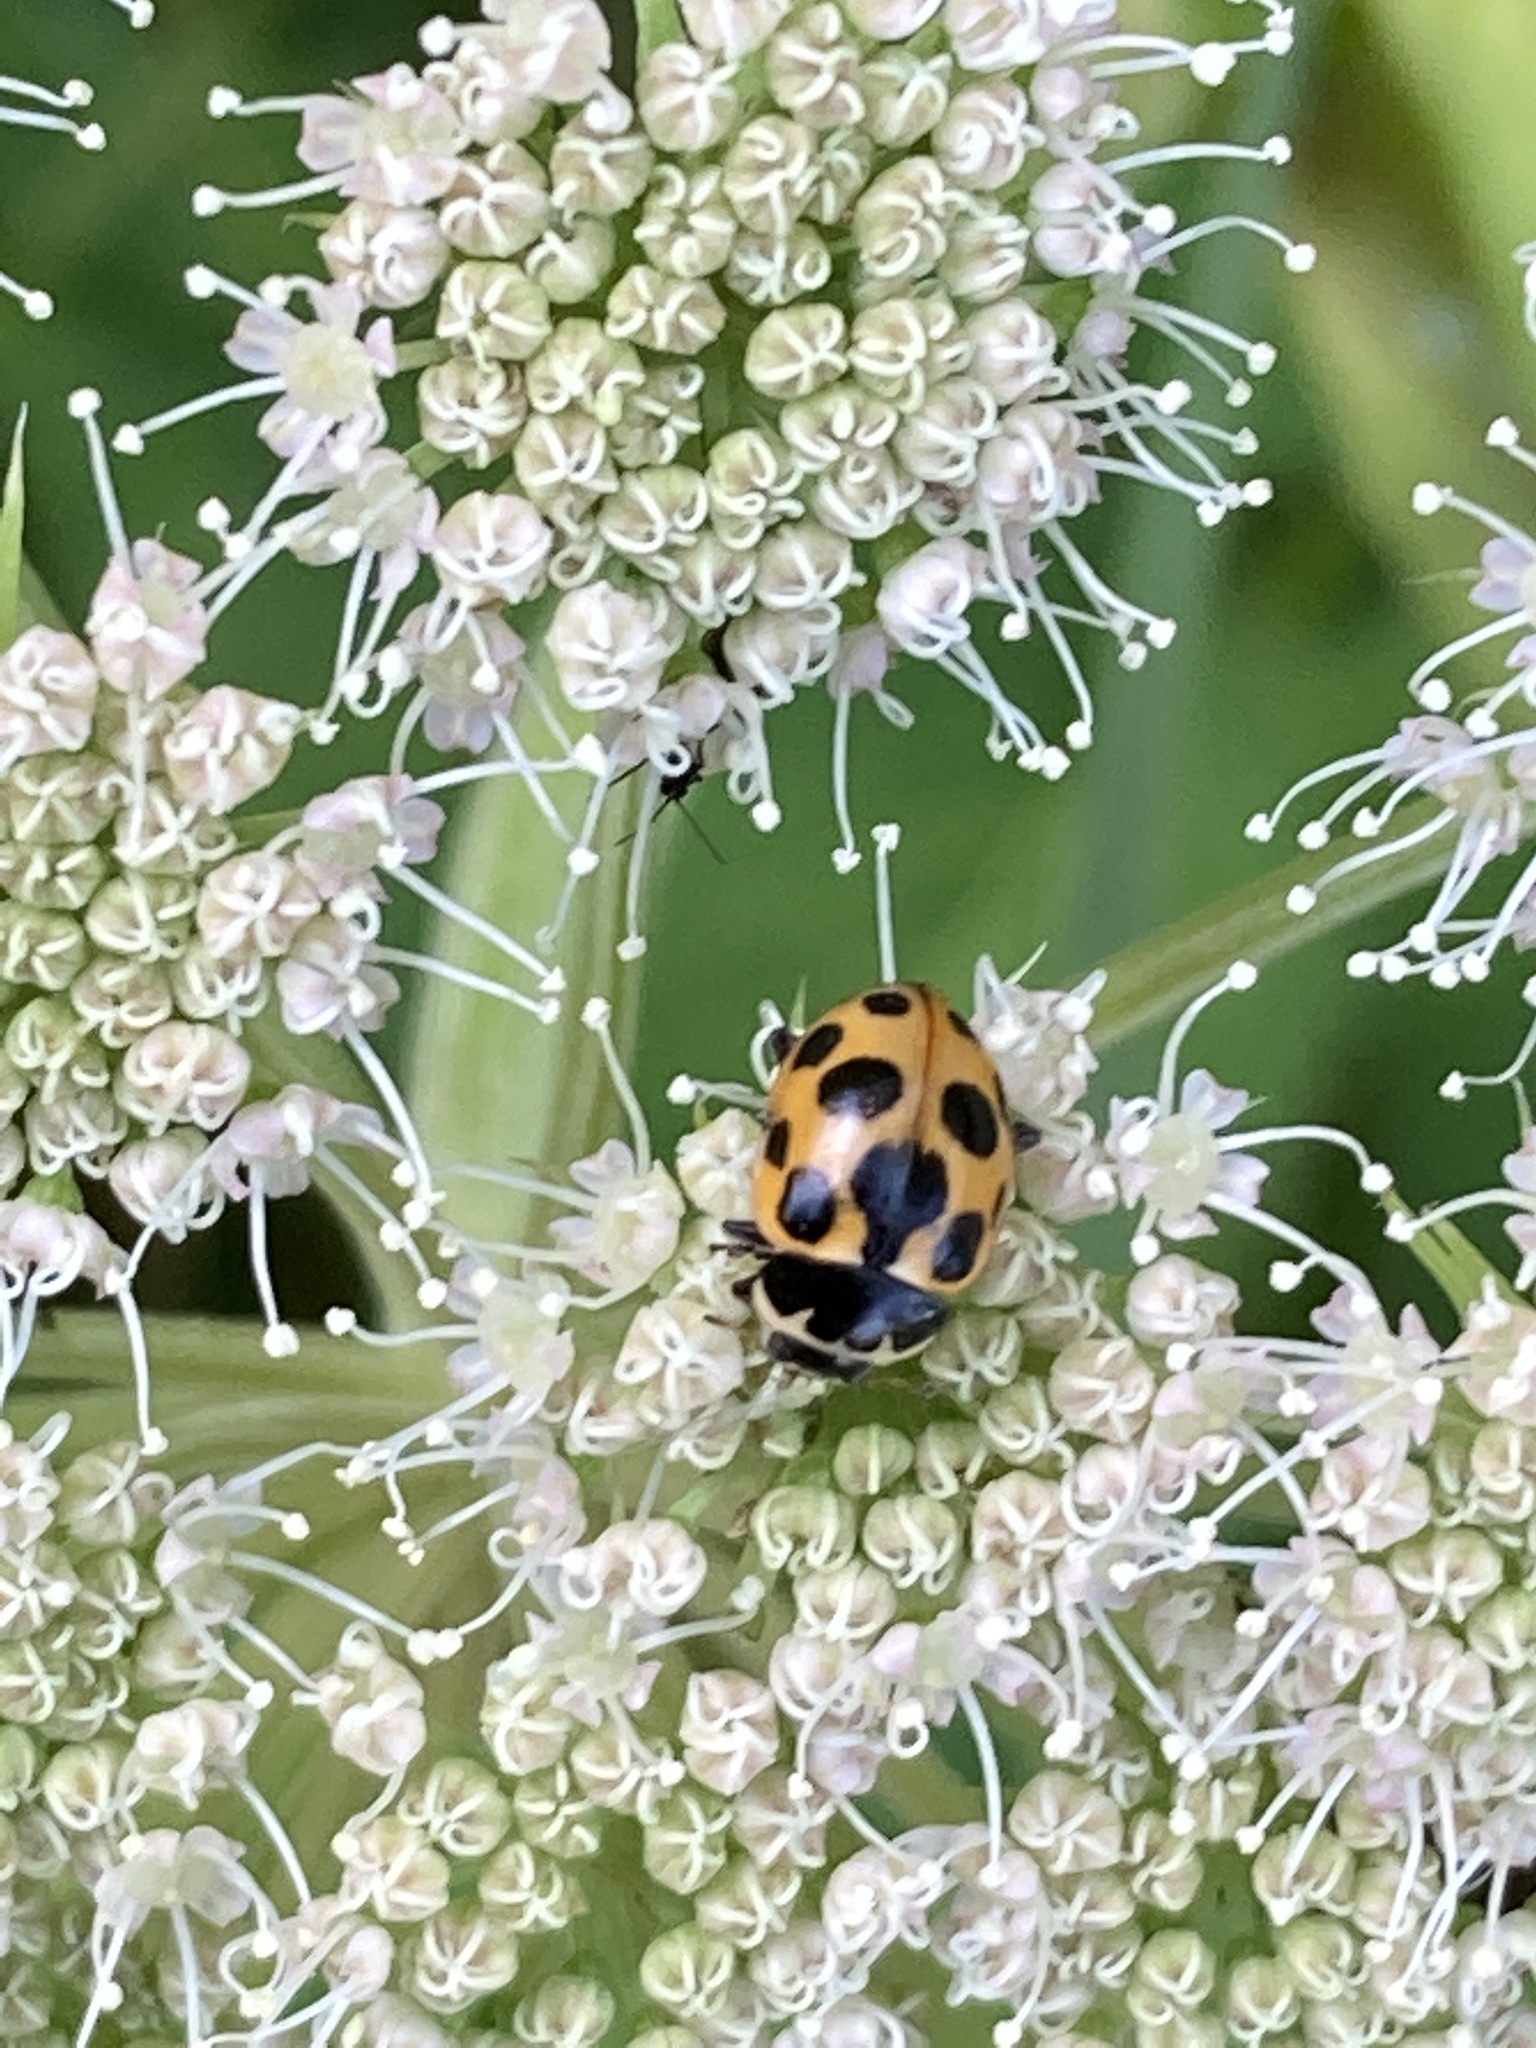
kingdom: Animalia
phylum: Arthropoda
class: Insecta
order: Coleoptera
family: Coccinellidae
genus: Ceratomegilla
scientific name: Ceratomegilla notata
